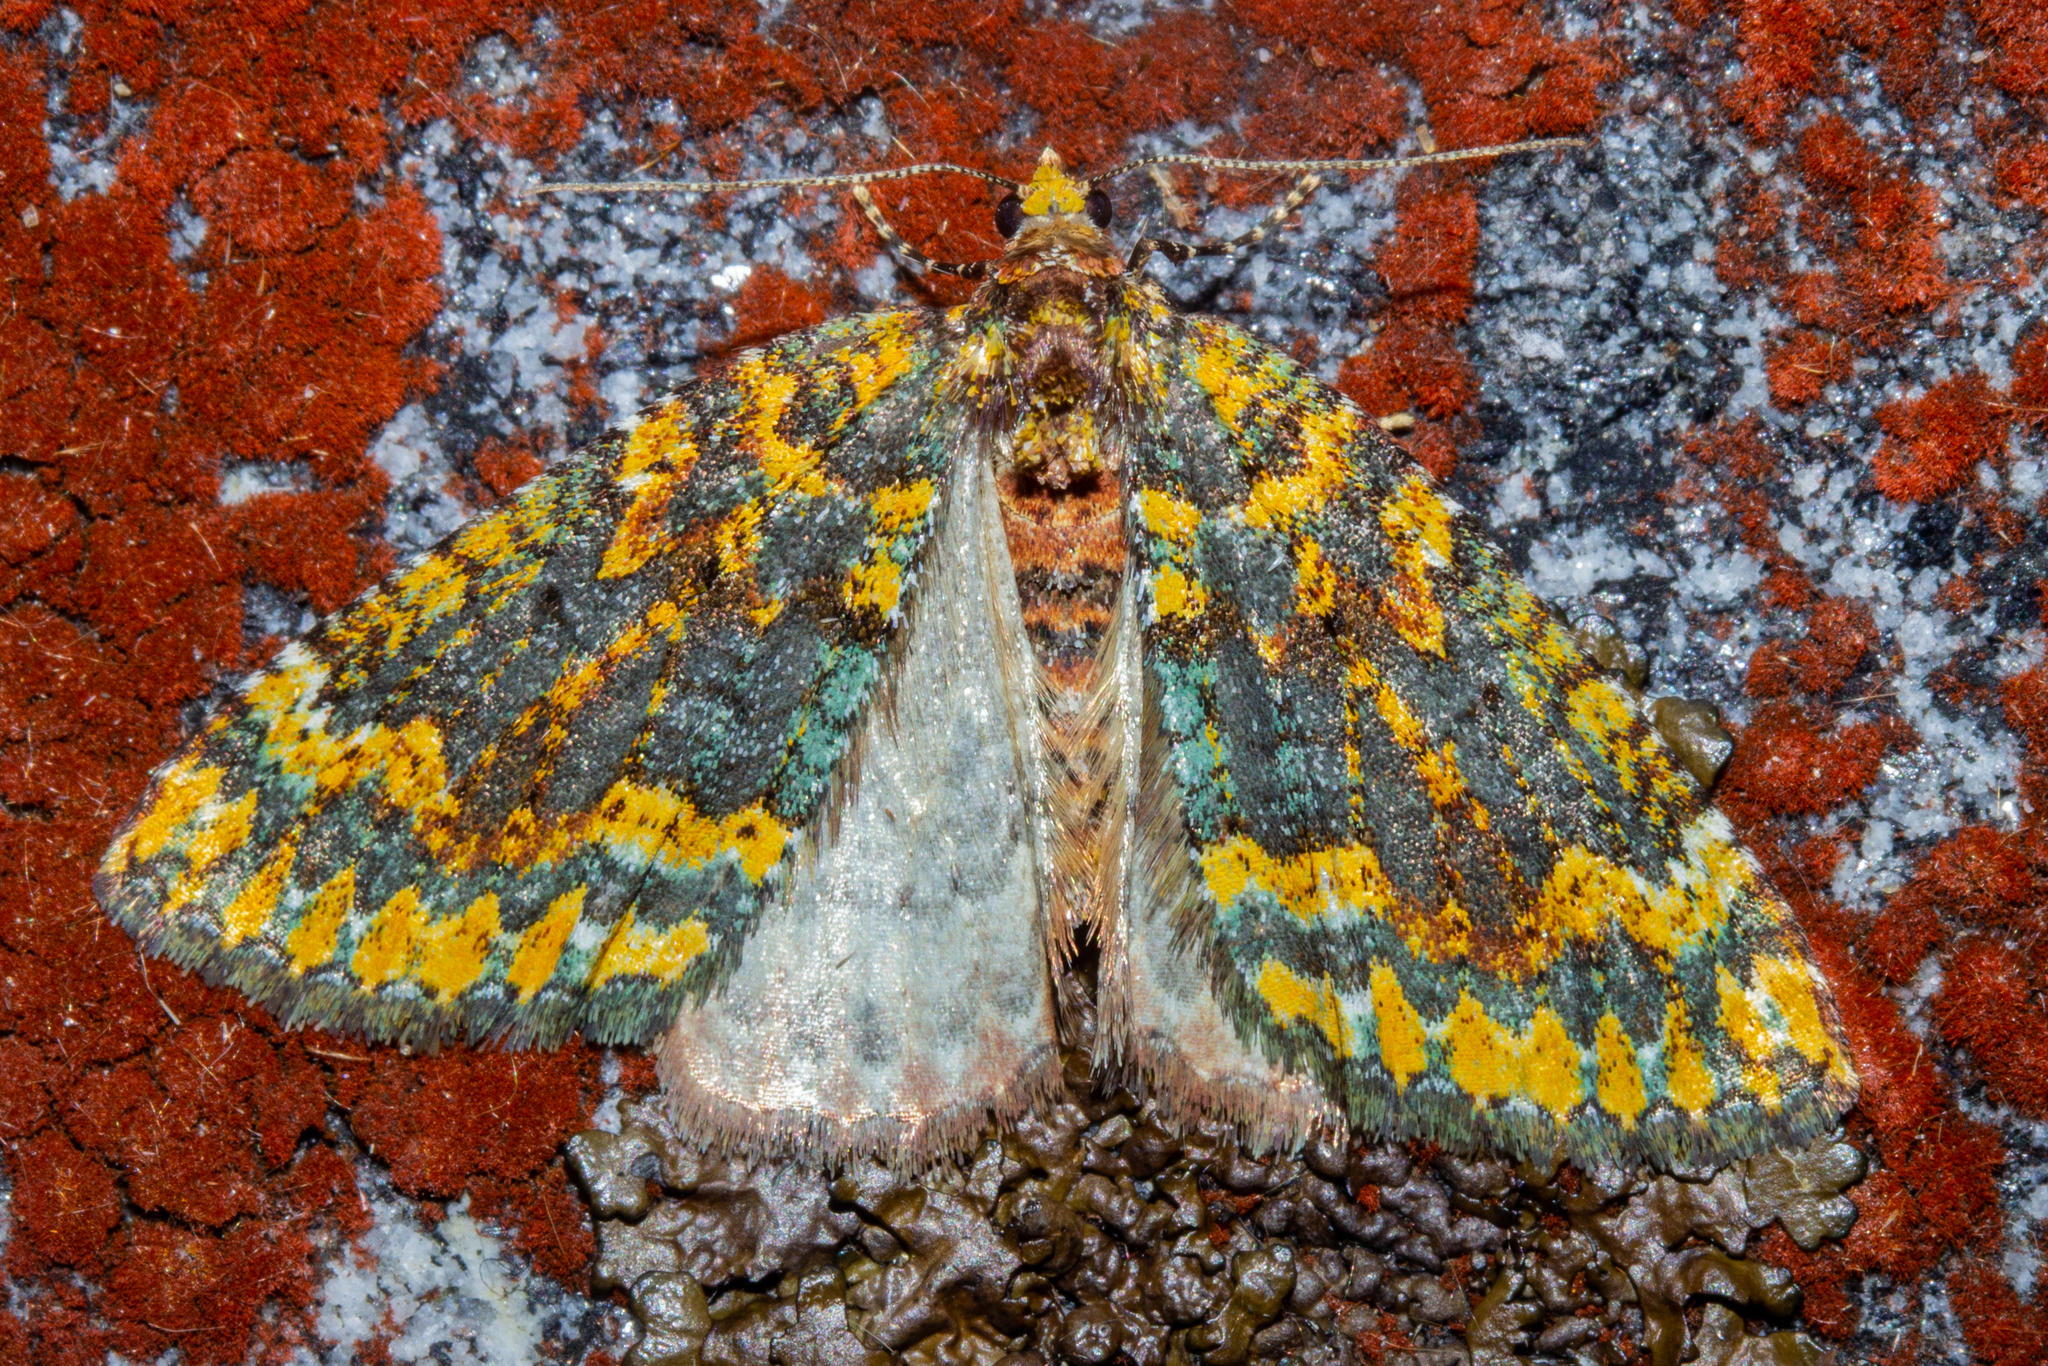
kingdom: Animalia
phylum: Arthropoda
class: Insecta
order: Lepidoptera
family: Geometridae
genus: Austrocidaria
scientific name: Austrocidaria callichlora
